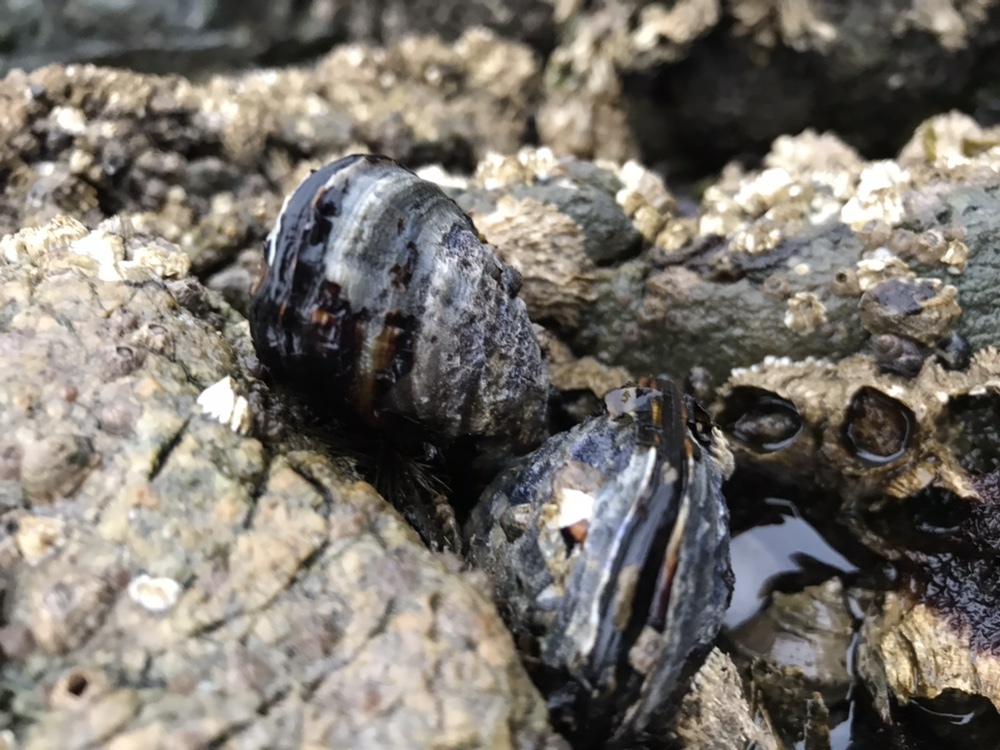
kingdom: Animalia
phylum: Mollusca
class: Bivalvia
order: Mytilida
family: Mytilidae
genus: Mytilus
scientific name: Mytilus californianus
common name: California mussel
